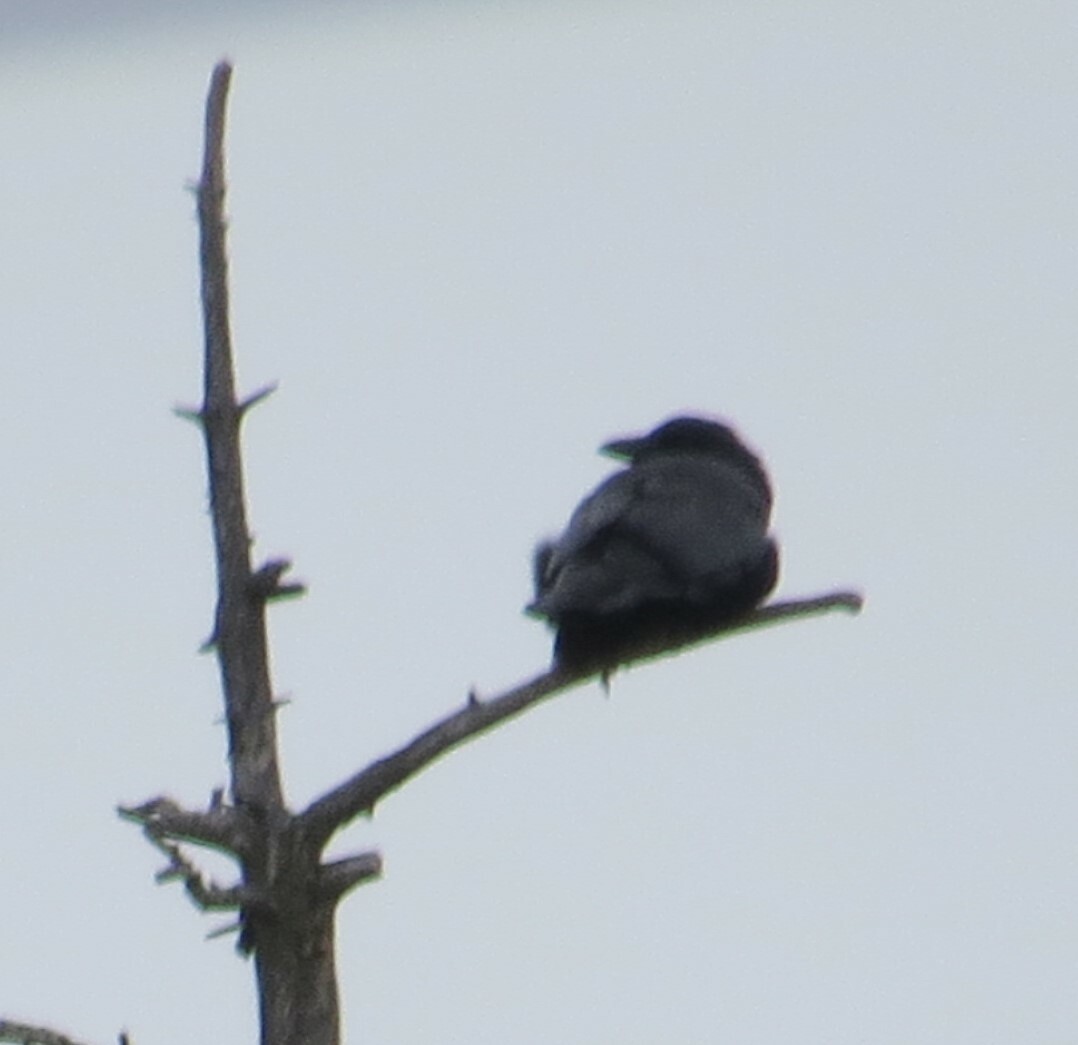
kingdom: Animalia
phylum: Chordata
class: Aves
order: Passeriformes
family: Corvidae
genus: Corvus
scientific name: Corvus brachyrhynchos
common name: American crow
